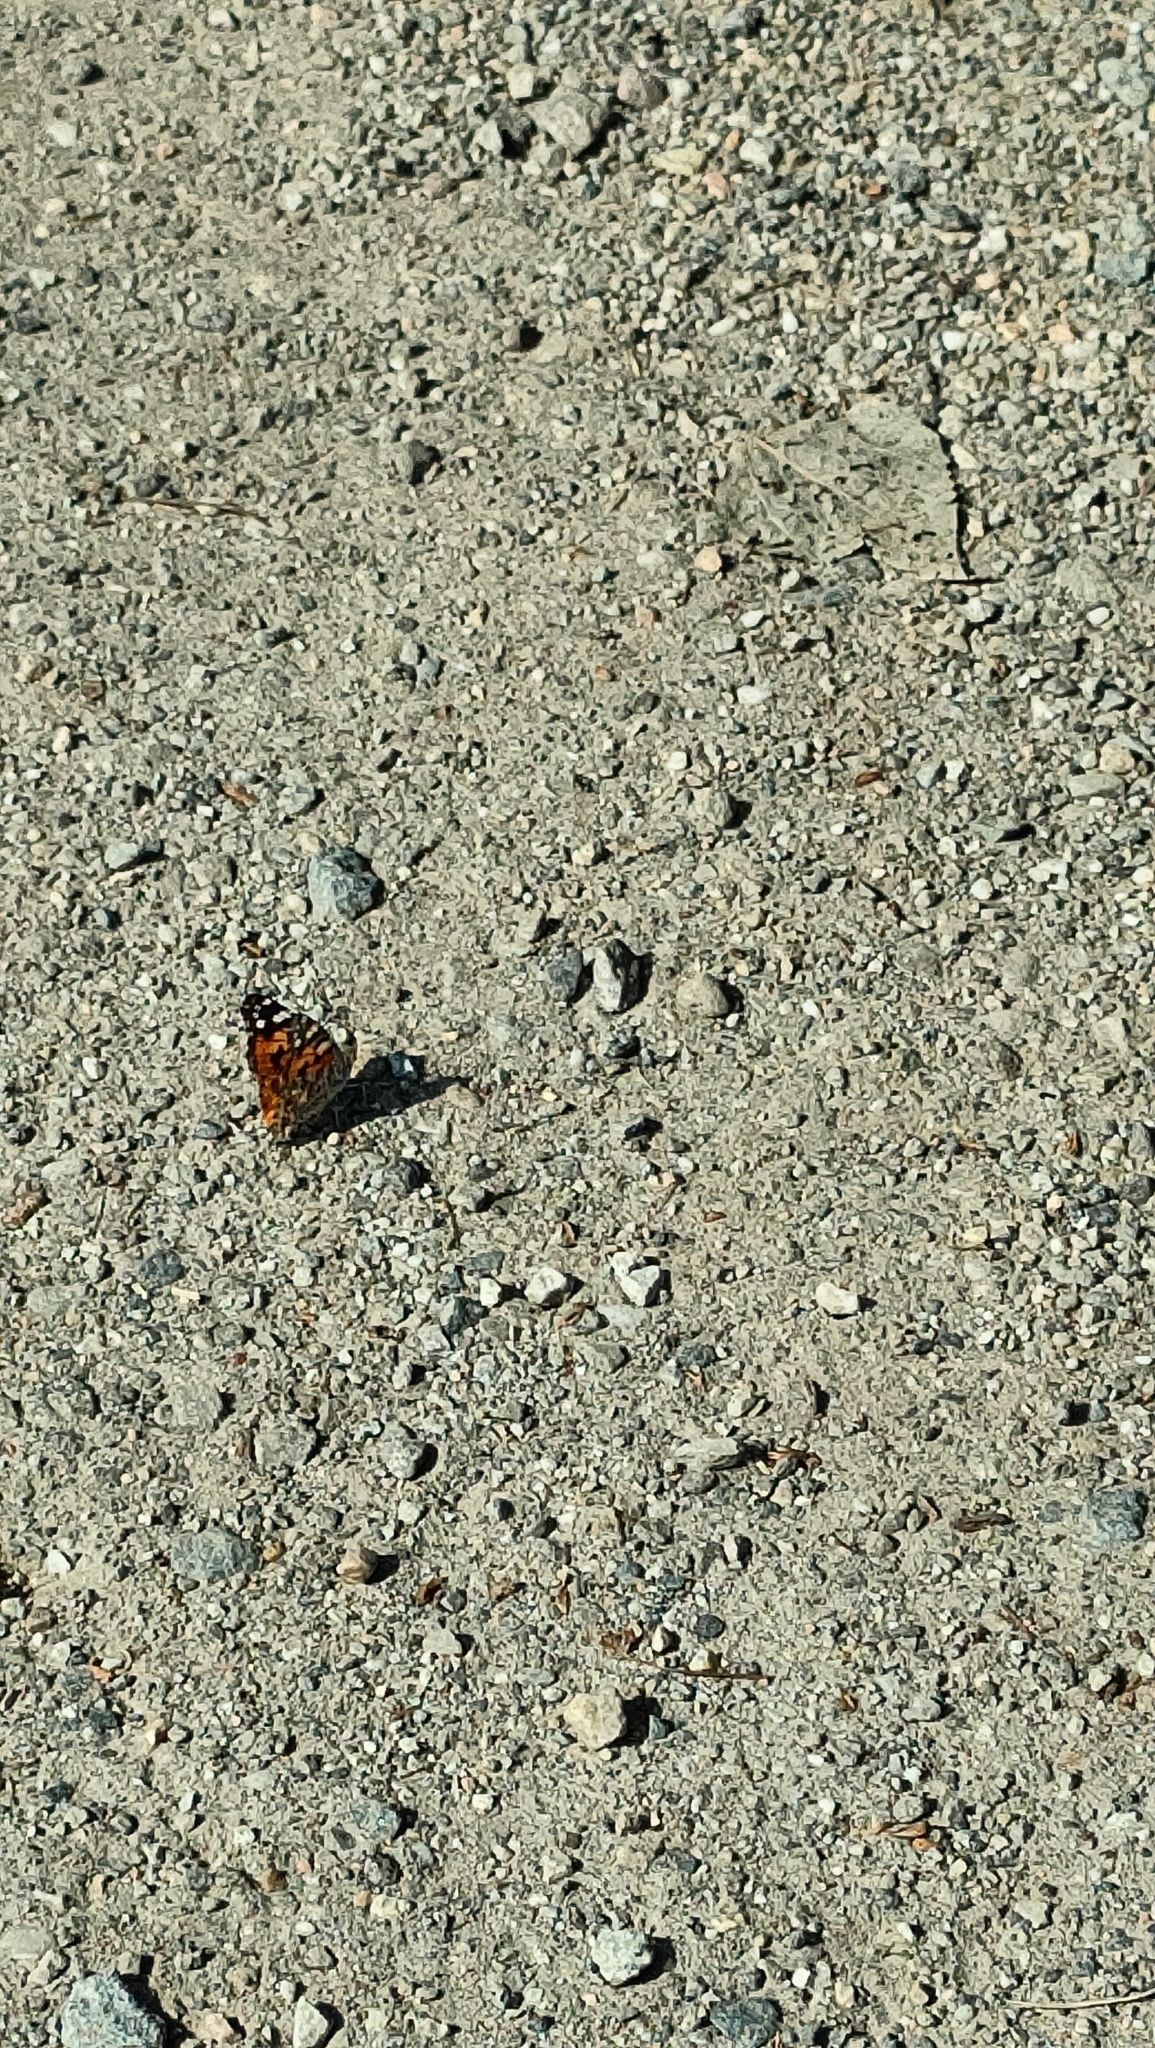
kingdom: Animalia
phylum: Arthropoda
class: Insecta
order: Lepidoptera
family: Nymphalidae
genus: Vanessa
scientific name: Vanessa cardui
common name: Painted lady
